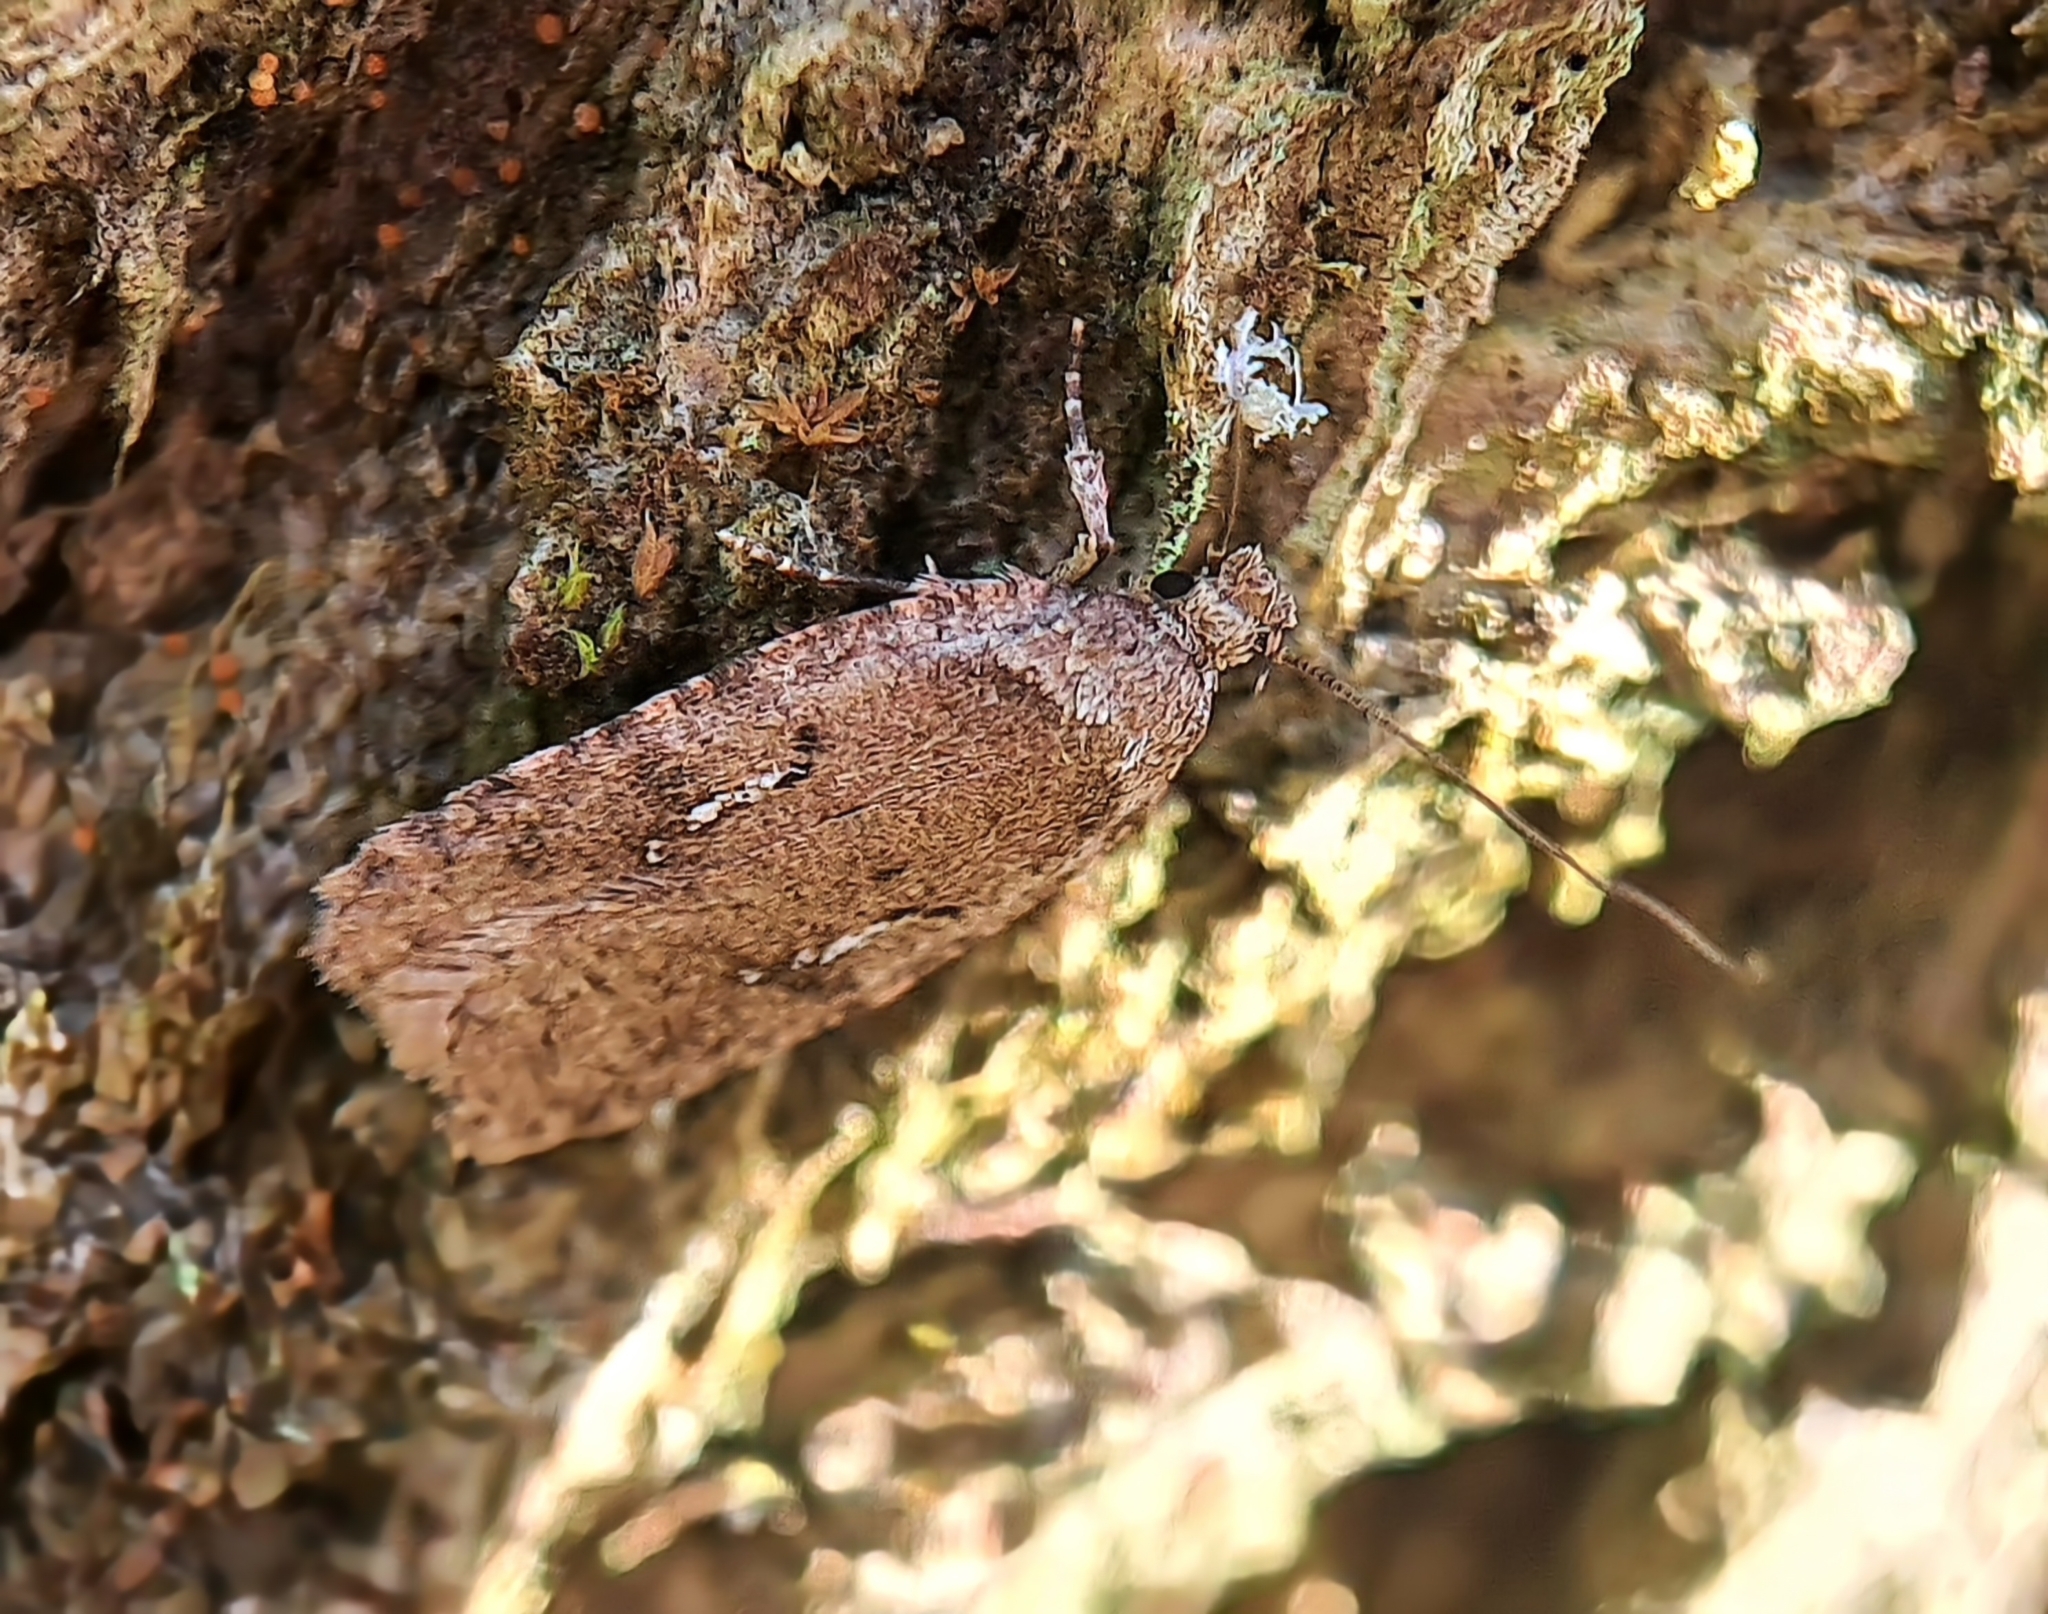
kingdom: Animalia
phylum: Arthropoda
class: Insecta
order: Lepidoptera
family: Depressariidae
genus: Agonopterix
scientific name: Agonopterix
